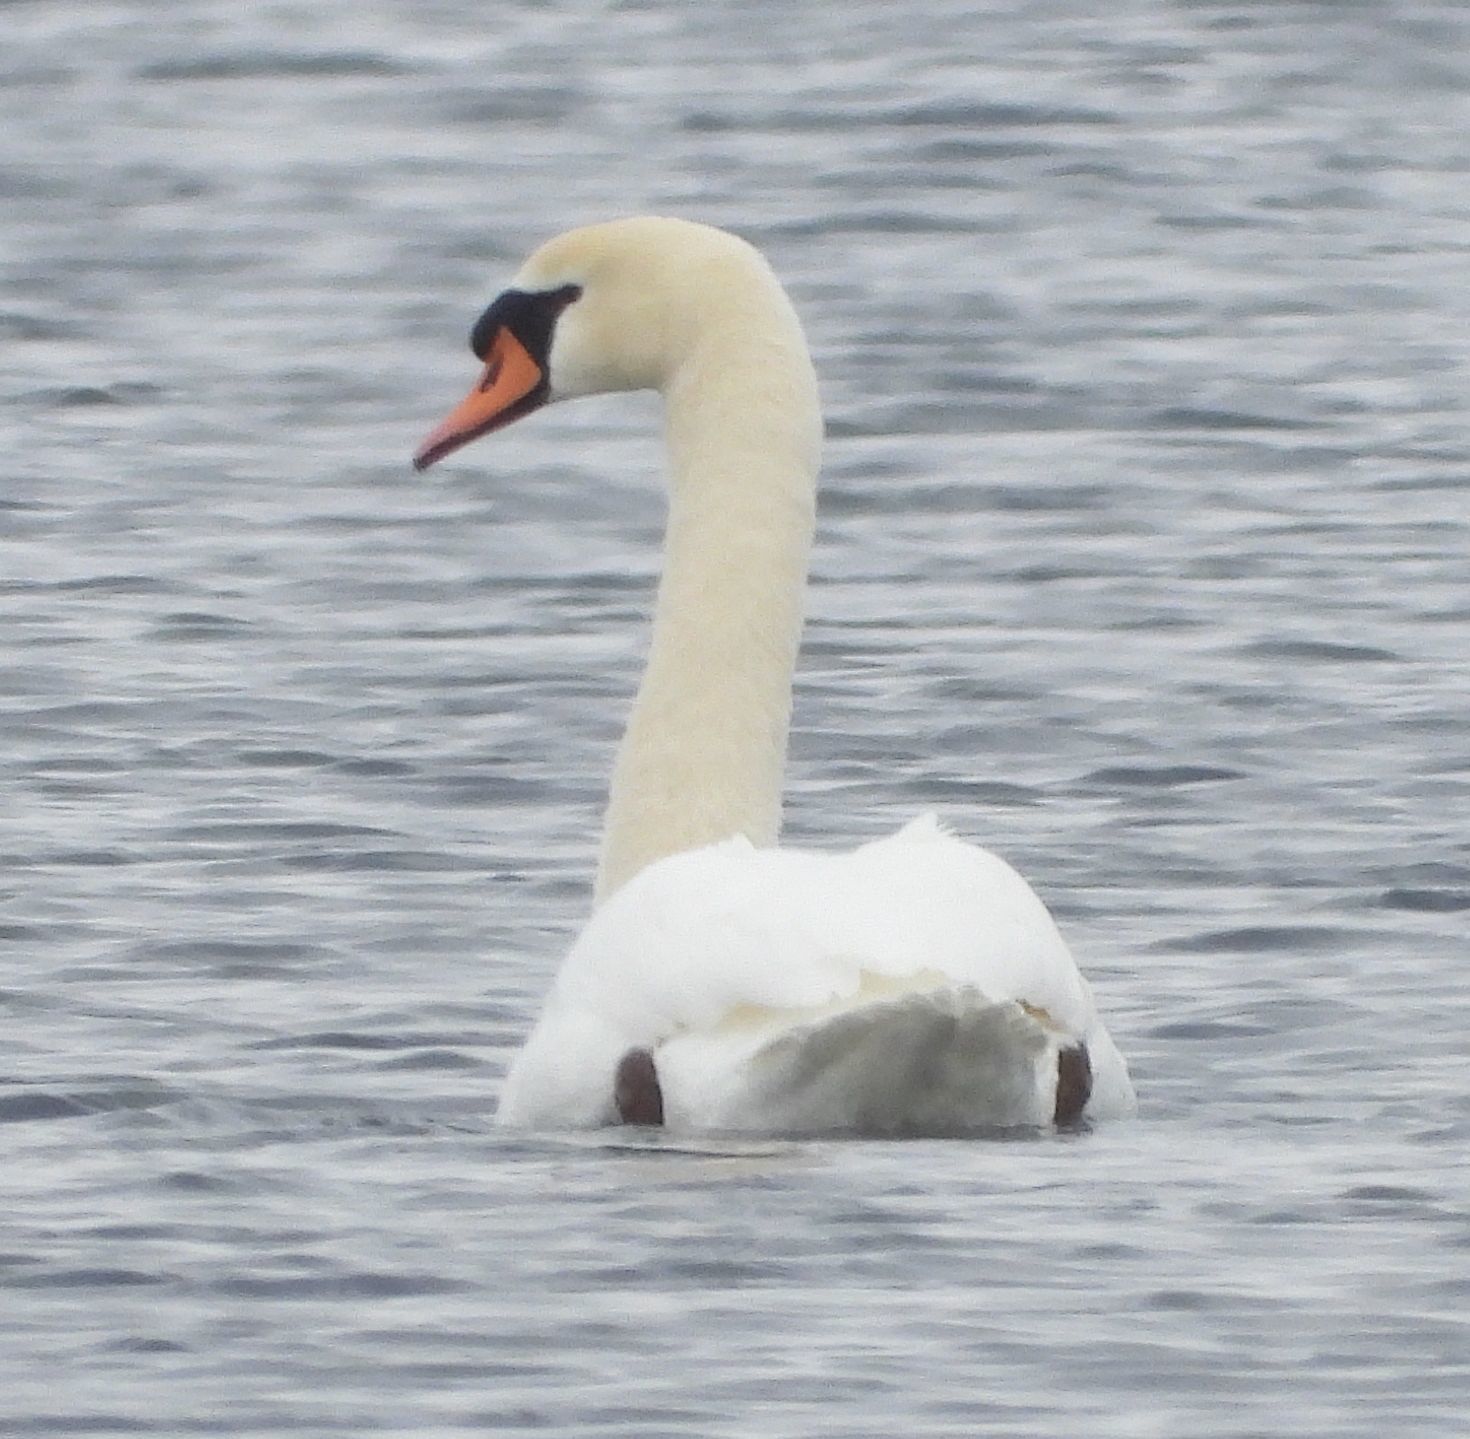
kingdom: Animalia
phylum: Chordata
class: Aves
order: Anseriformes
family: Anatidae
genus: Cygnus
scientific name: Cygnus olor
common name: Mute swan
